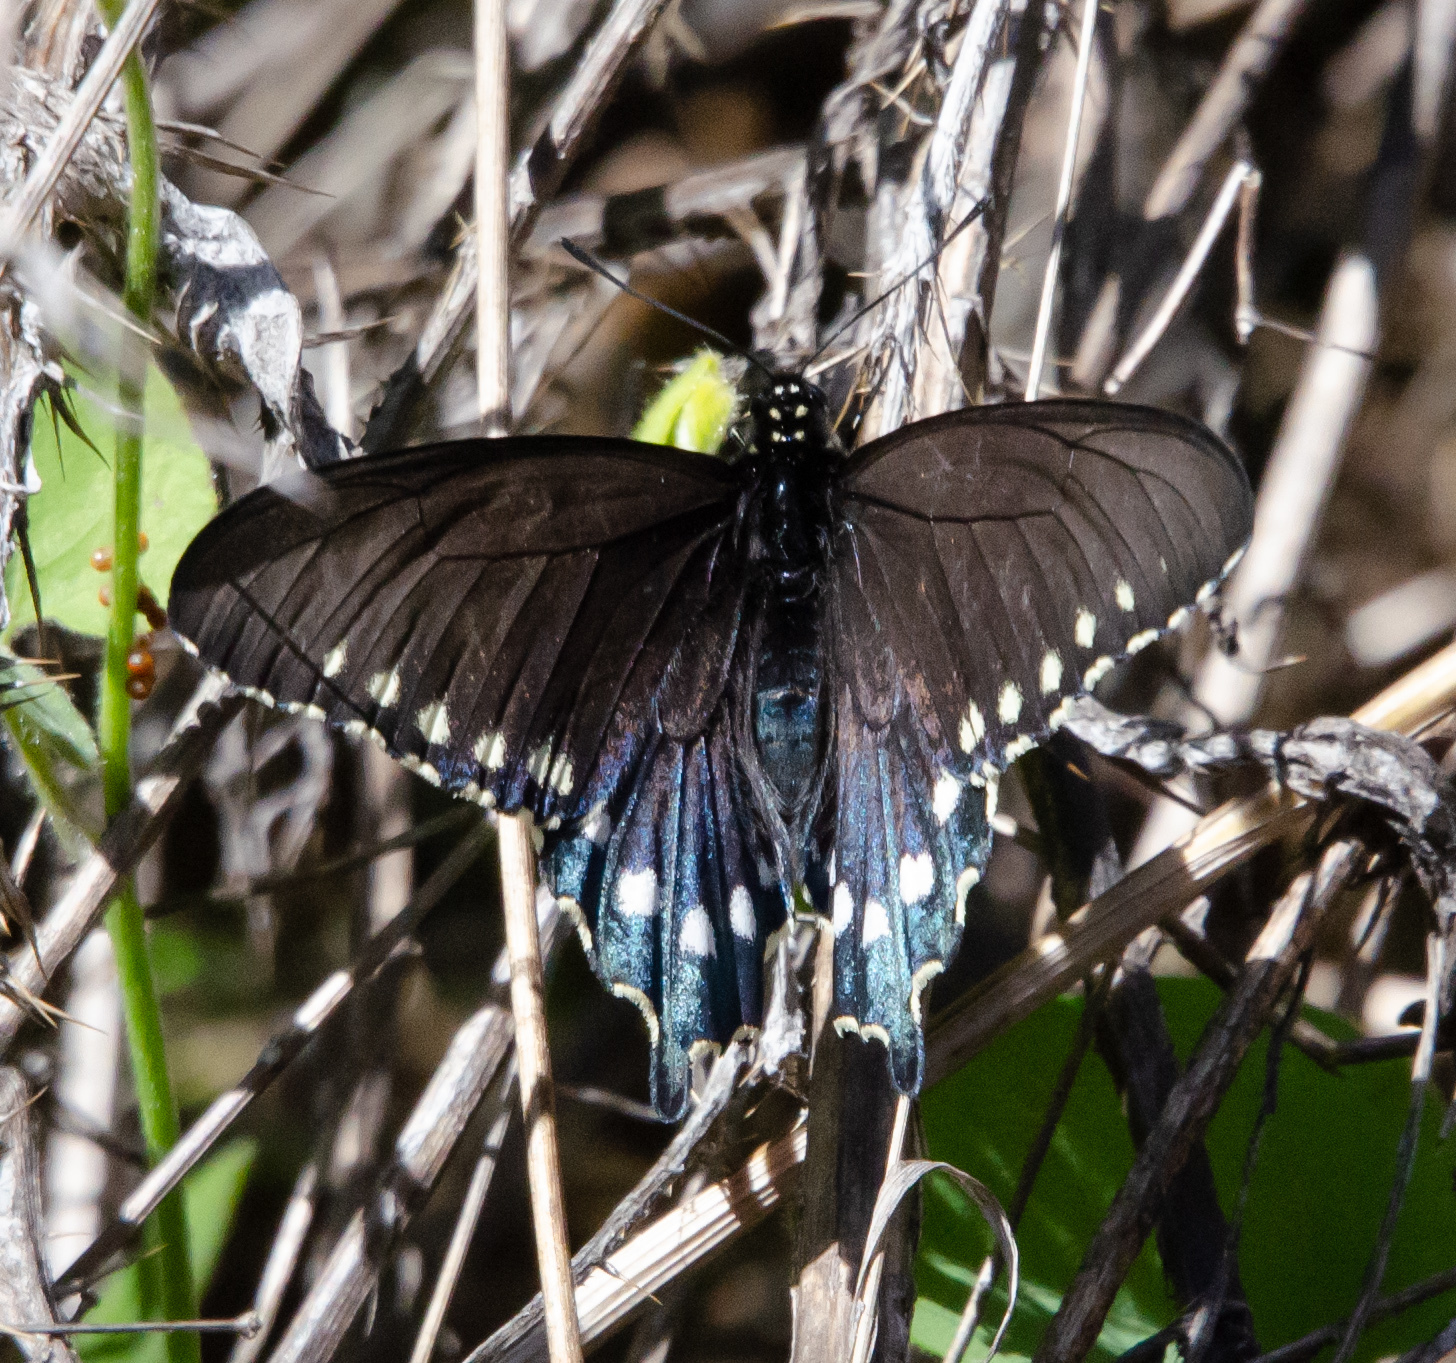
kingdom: Animalia
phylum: Arthropoda
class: Insecta
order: Lepidoptera
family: Papilionidae
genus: Battus
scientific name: Battus philenor
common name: Pipevine swallowtail
